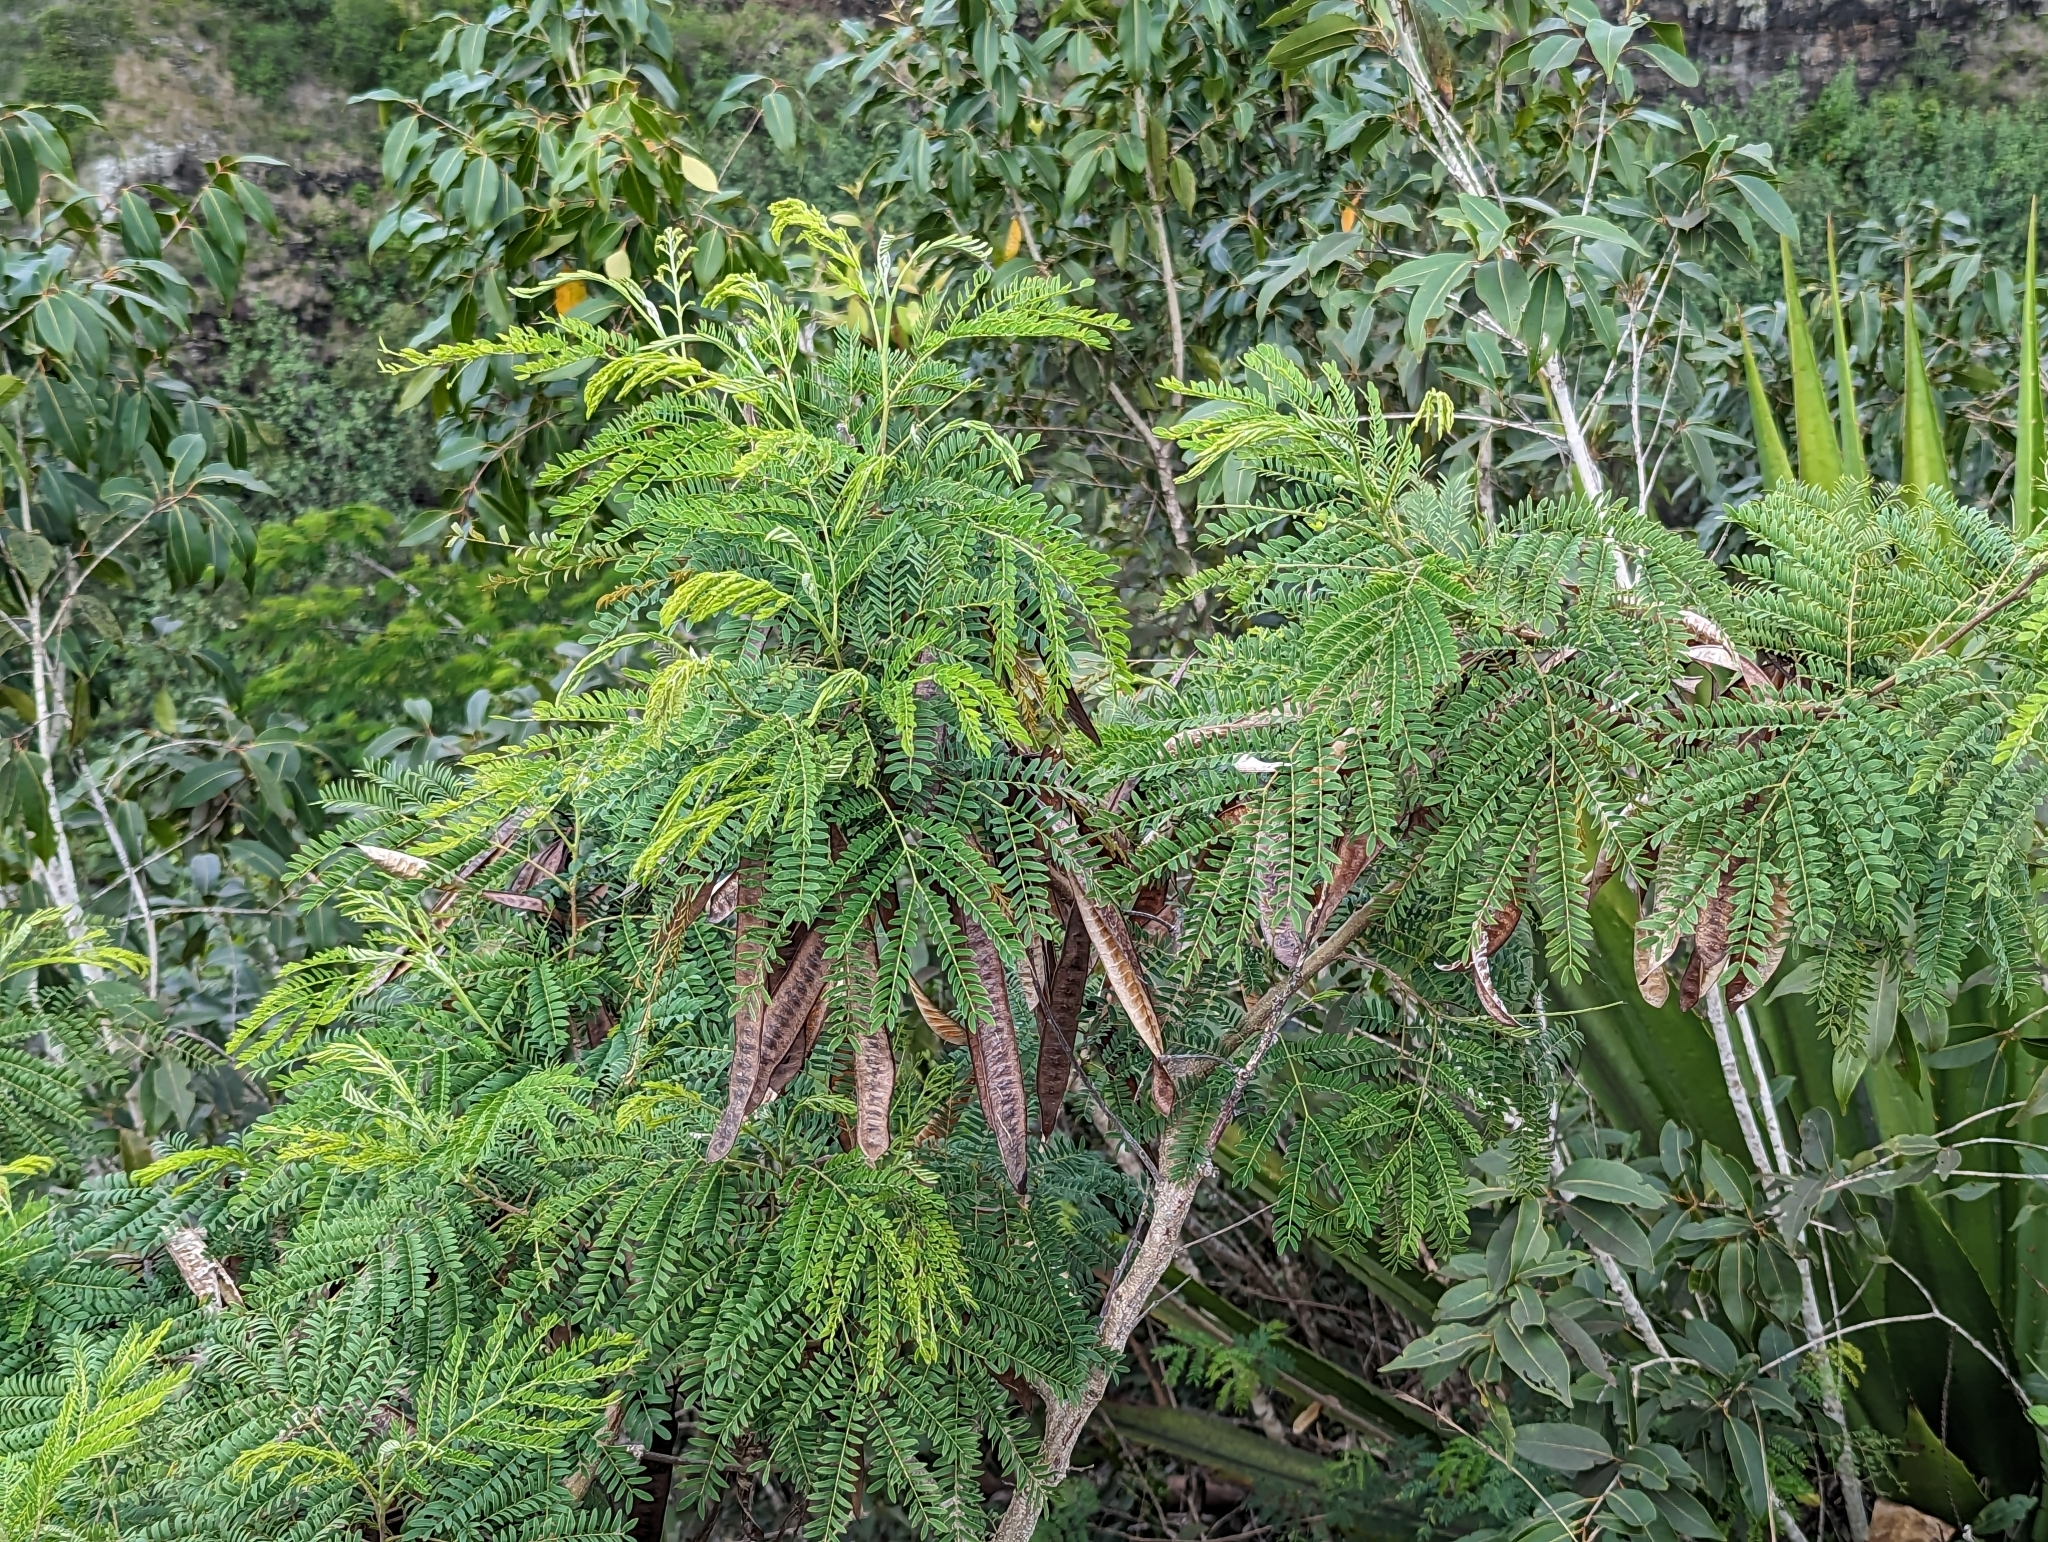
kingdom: Plantae
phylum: Tracheophyta
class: Magnoliopsida
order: Fabales
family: Fabaceae
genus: Leucaena
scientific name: Leucaena leucocephala
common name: White leadtree
